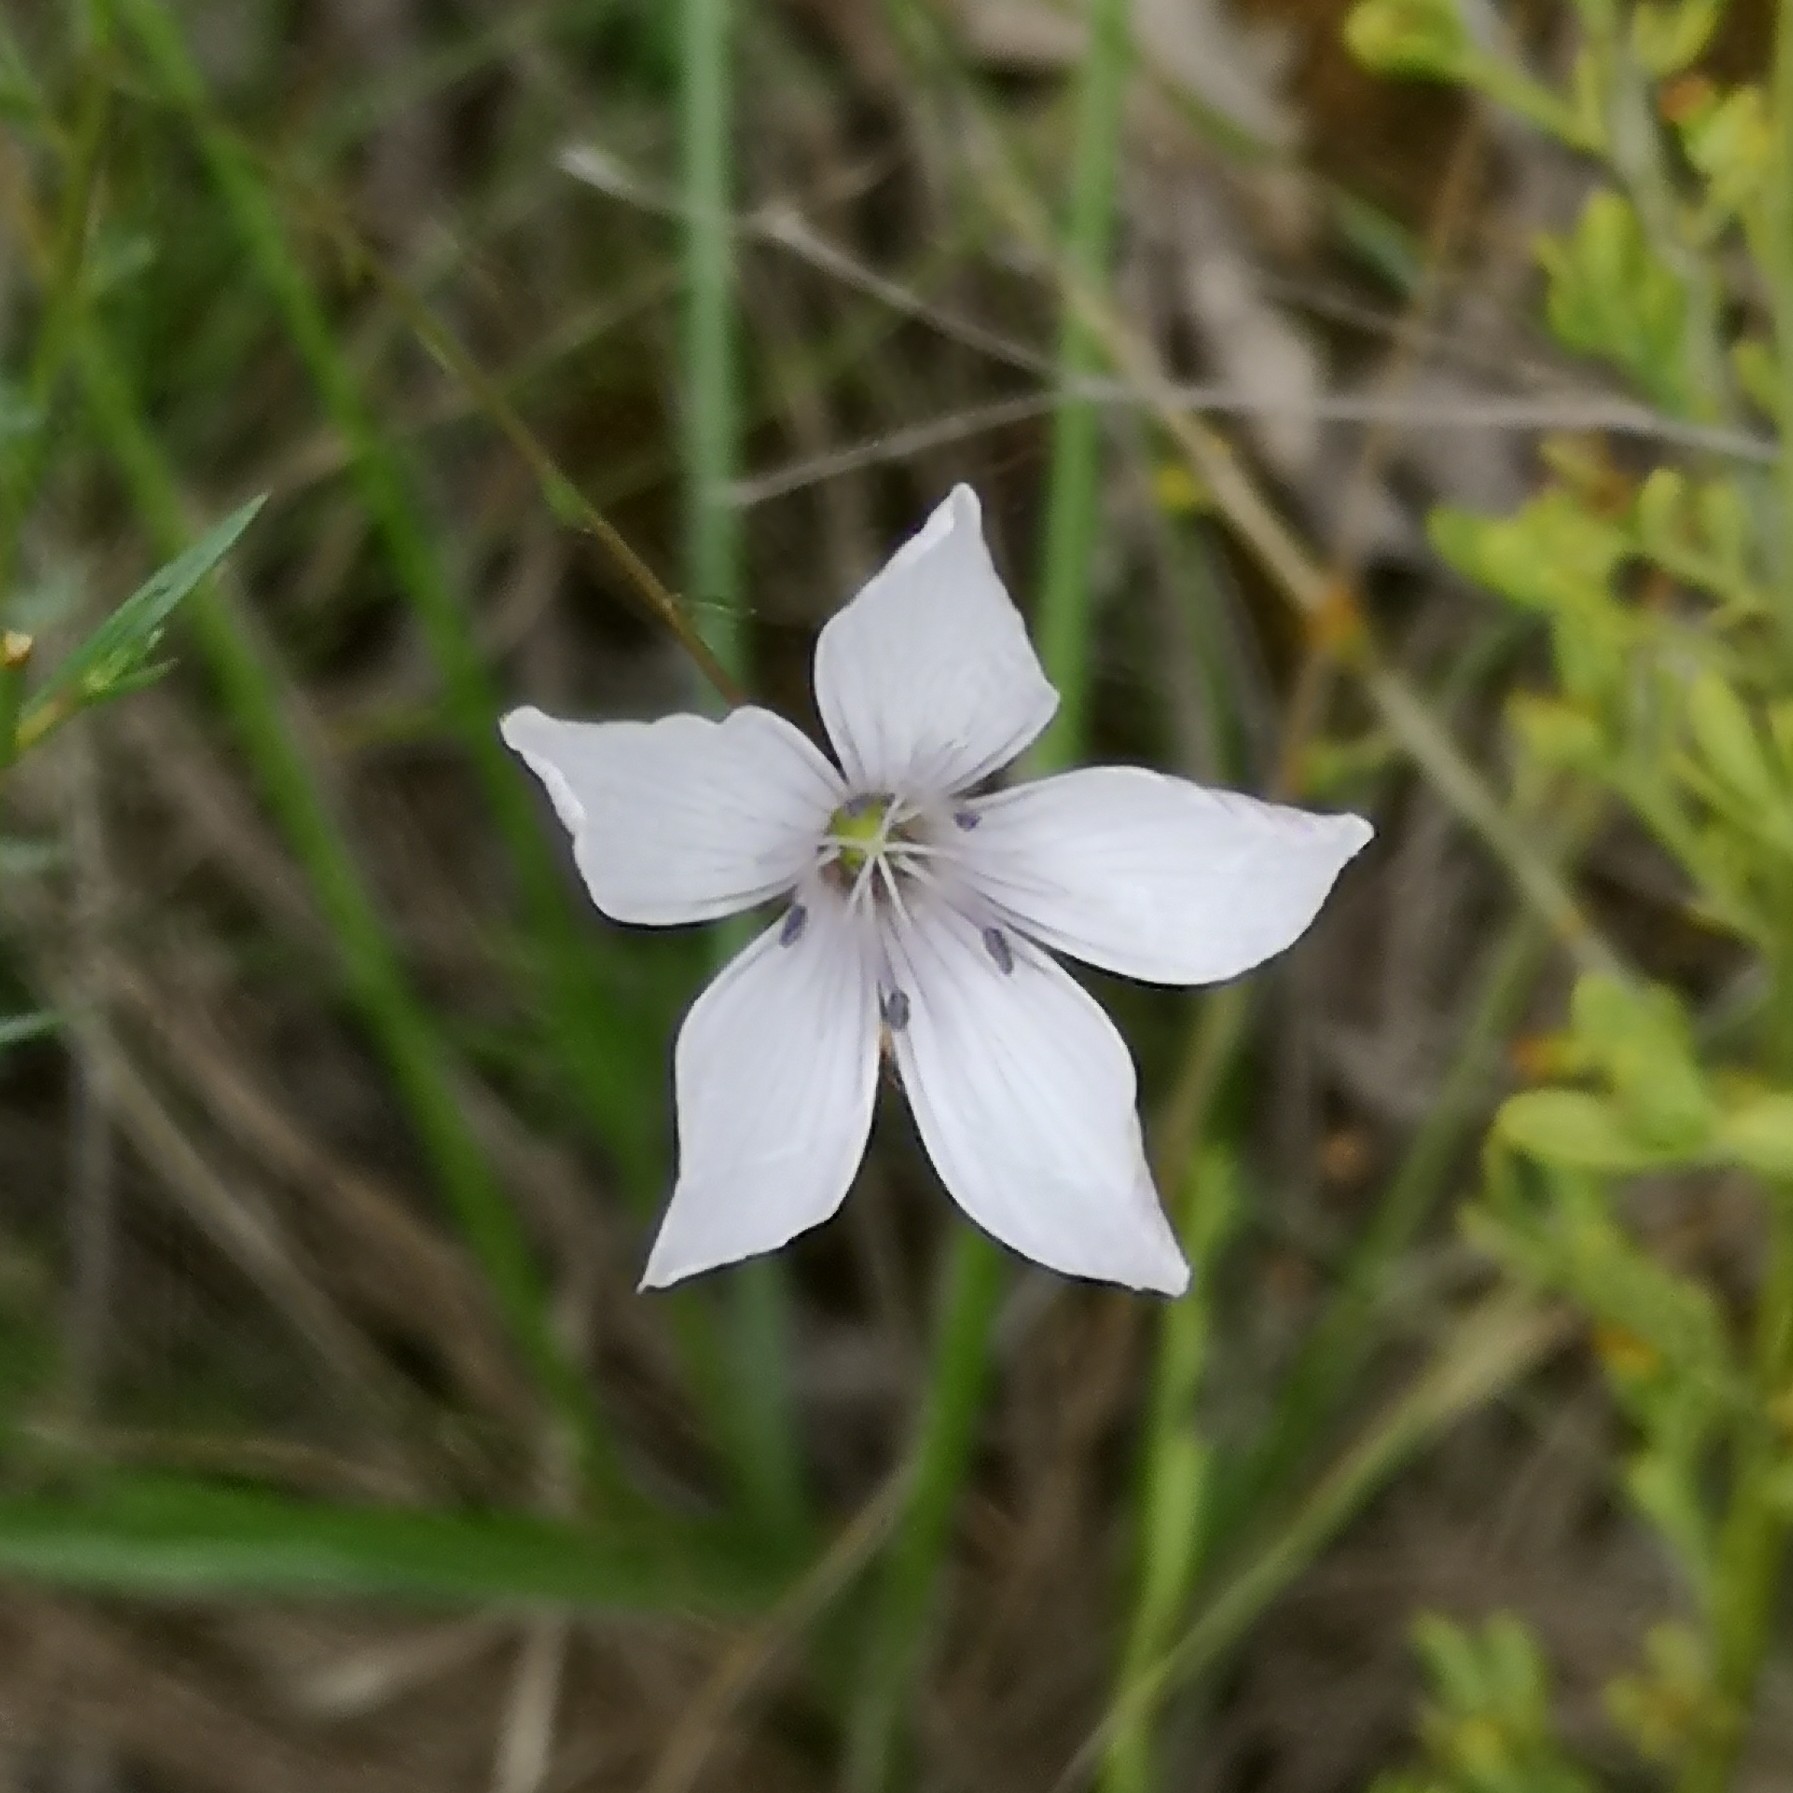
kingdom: Plantae
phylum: Tracheophyta
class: Magnoliopsida
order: Malpighiales
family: Linaceae
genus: Linum
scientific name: Linum tenuifolium
